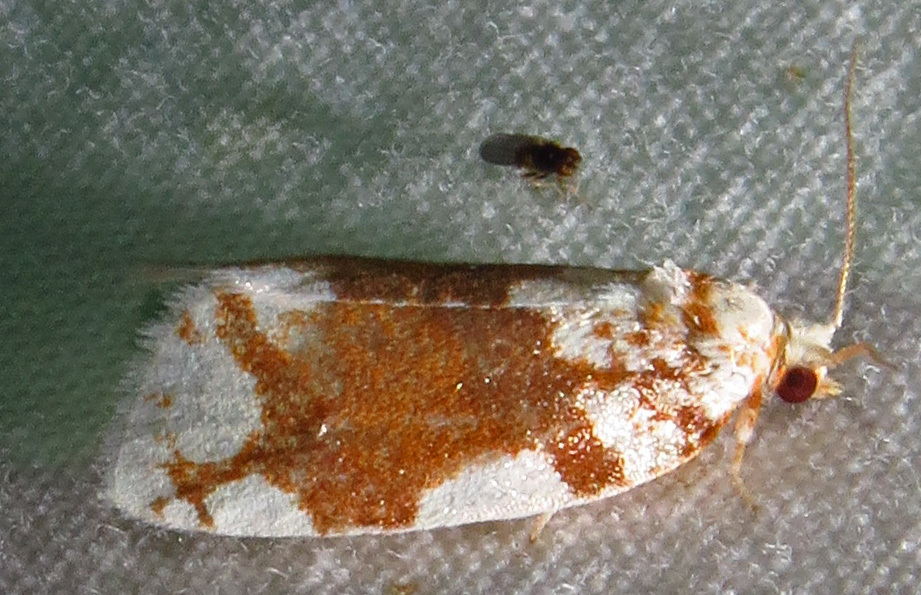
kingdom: Animalia
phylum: Arthropoda
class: Insecta
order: Lepidoptera
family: Tortricidae
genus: Argyrotaenia
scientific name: Argyrotaenia alisellana
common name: White-spotted leafroller moth
